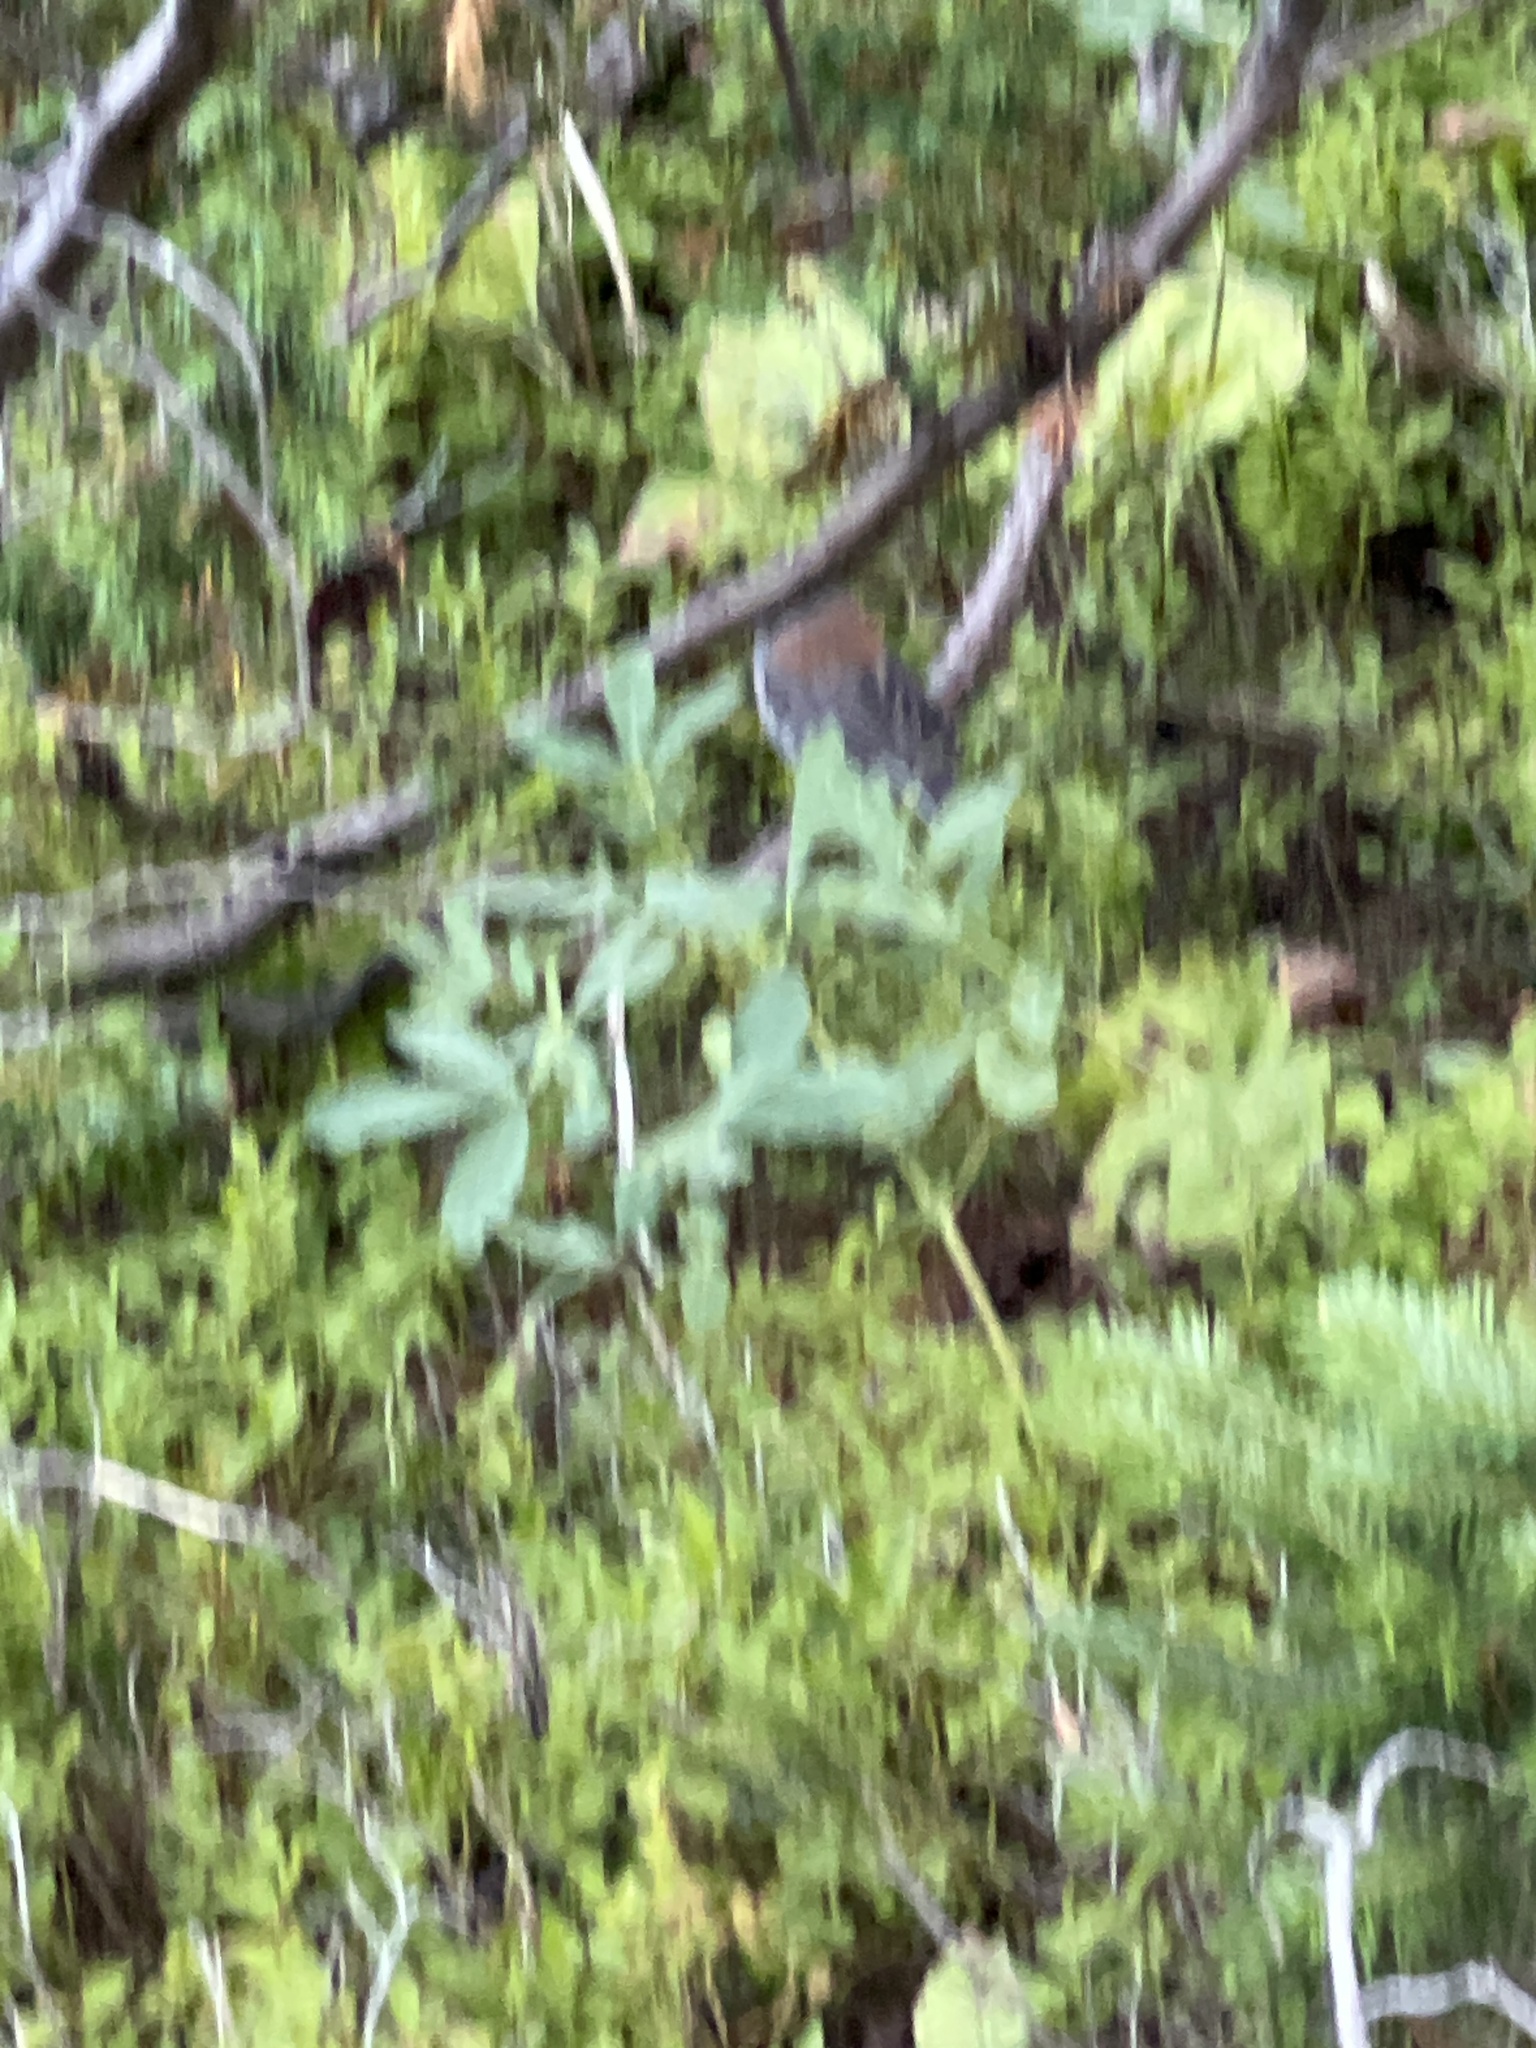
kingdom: Animalia
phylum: Chordata
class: Aves
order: Passeriformes
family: Passerellidae
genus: Junco
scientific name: Junco hyemalis
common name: Dark-eyed junco
